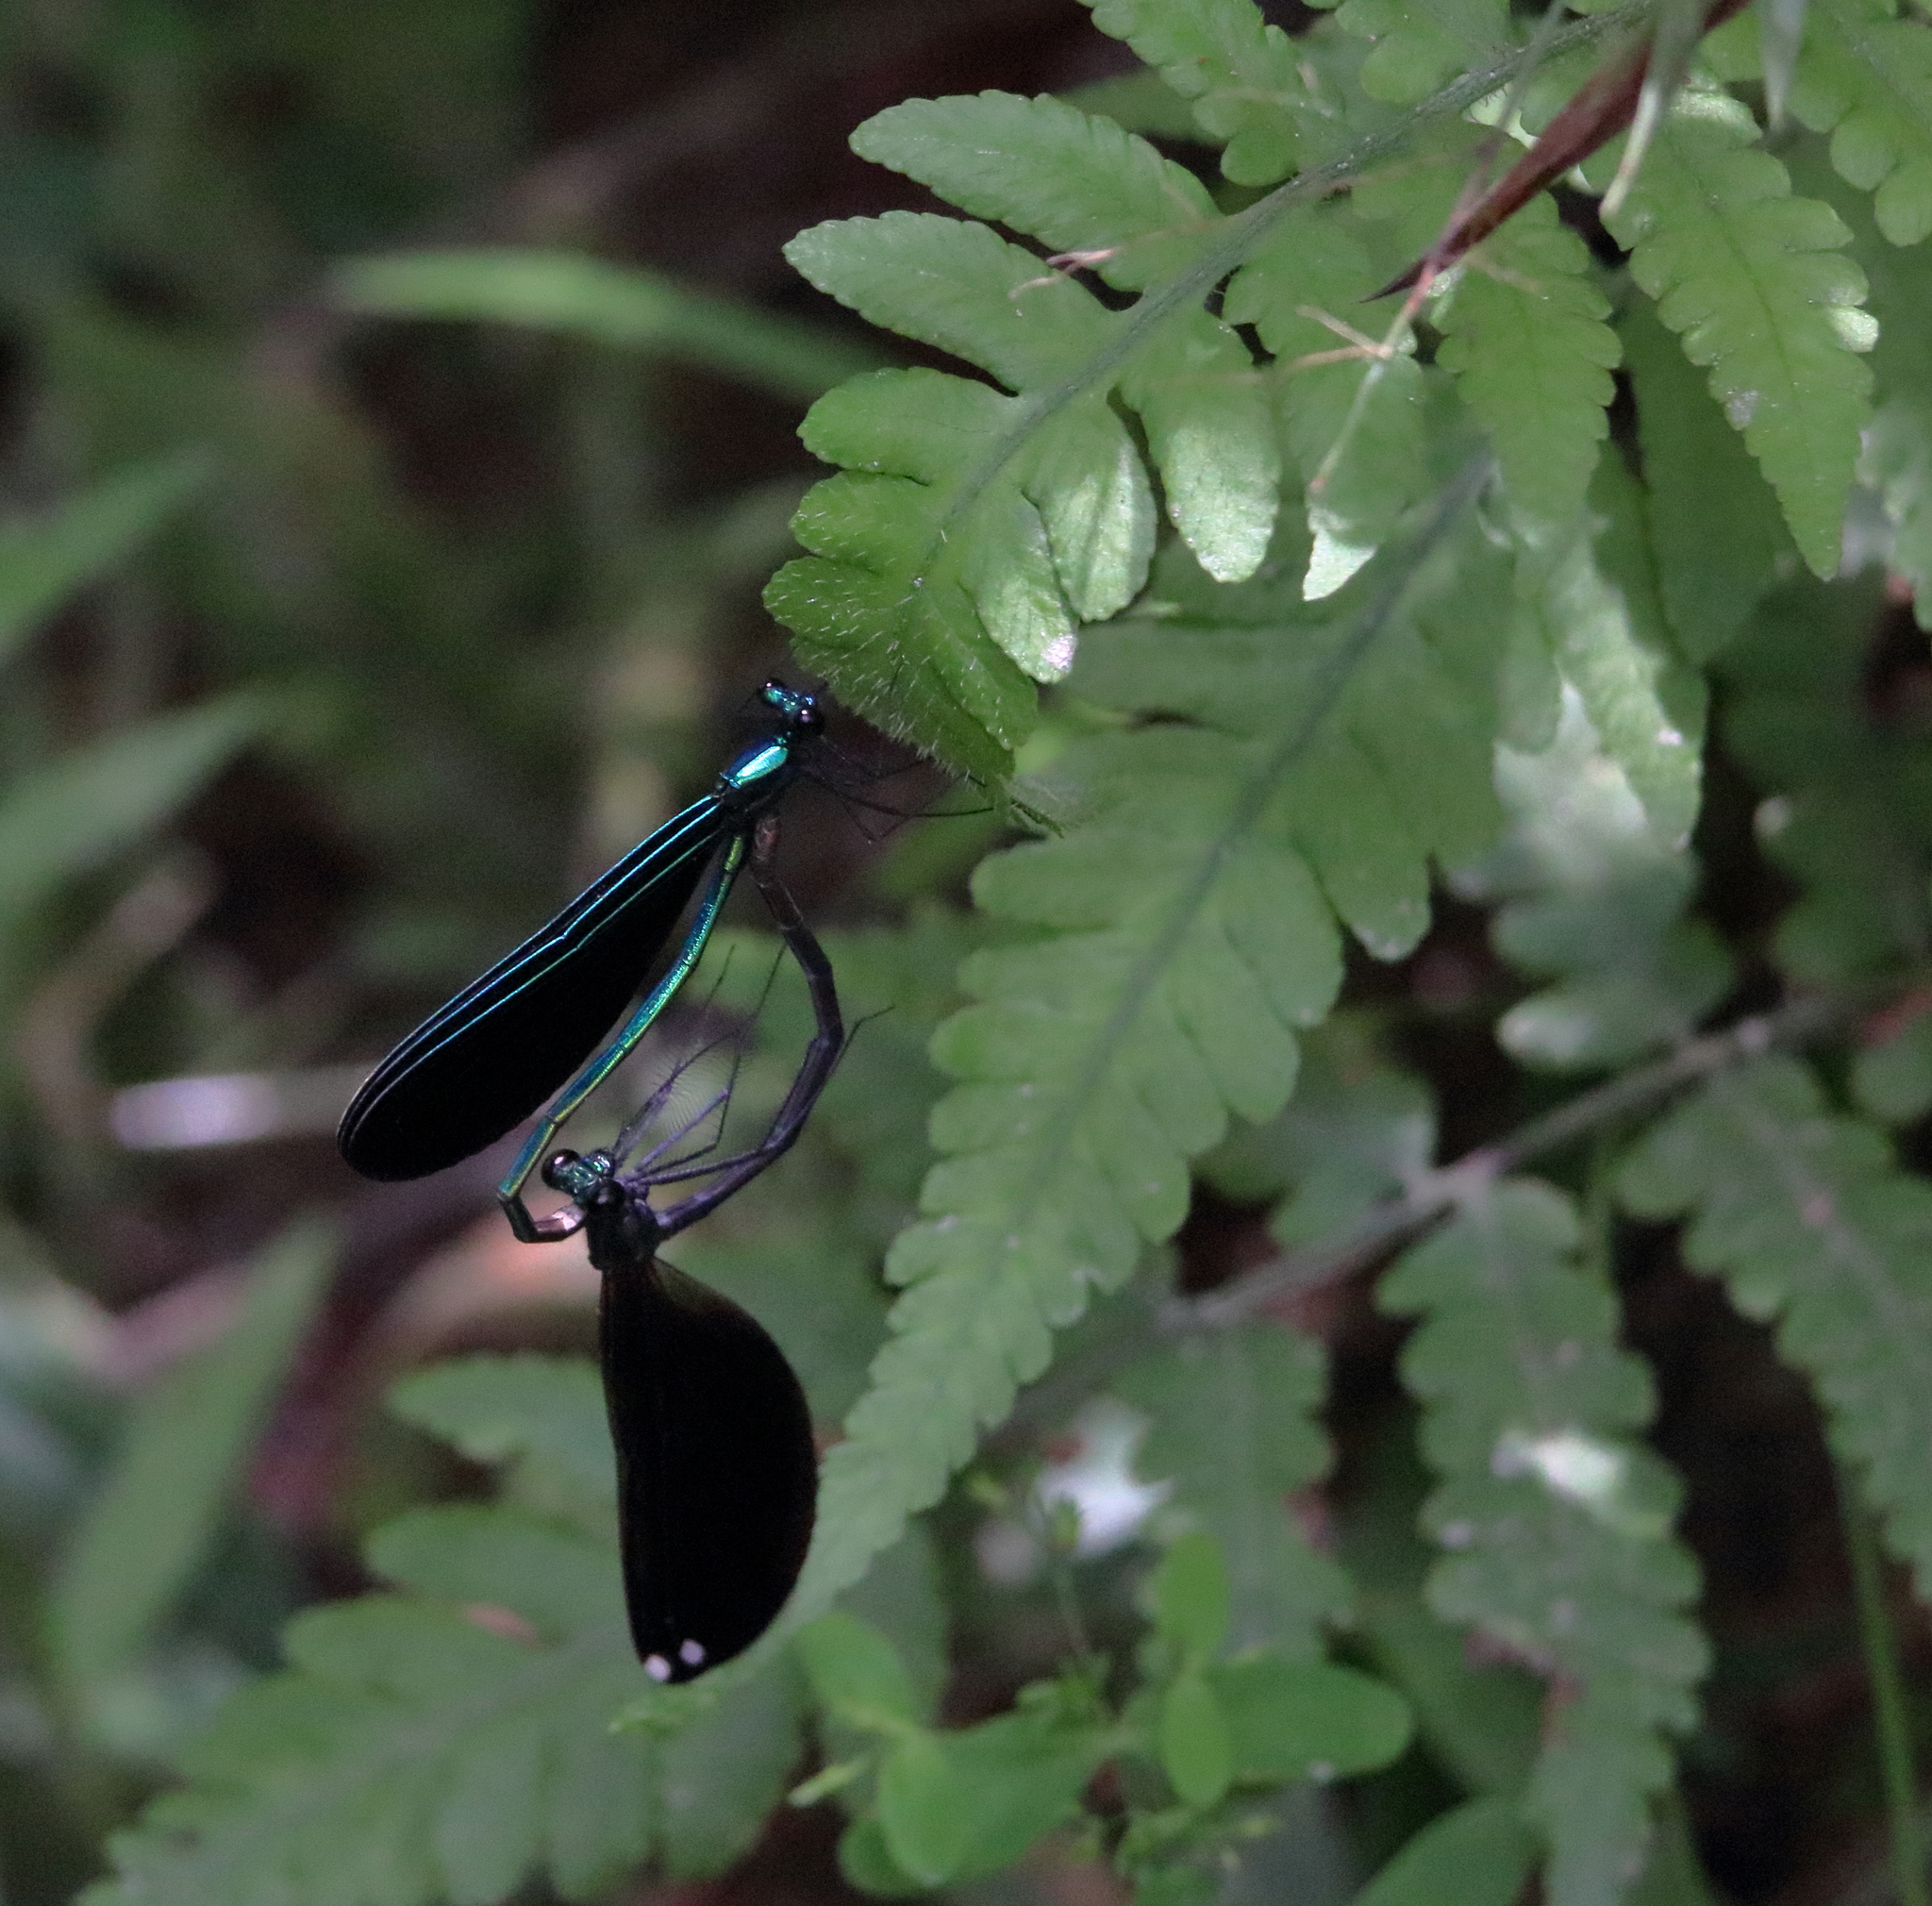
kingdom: Animalia
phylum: Arthropoda
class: Insecta
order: Odonata
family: Calopterygidae
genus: Calopteryx
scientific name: Calopteryx maculata
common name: Ebony jewelwing
